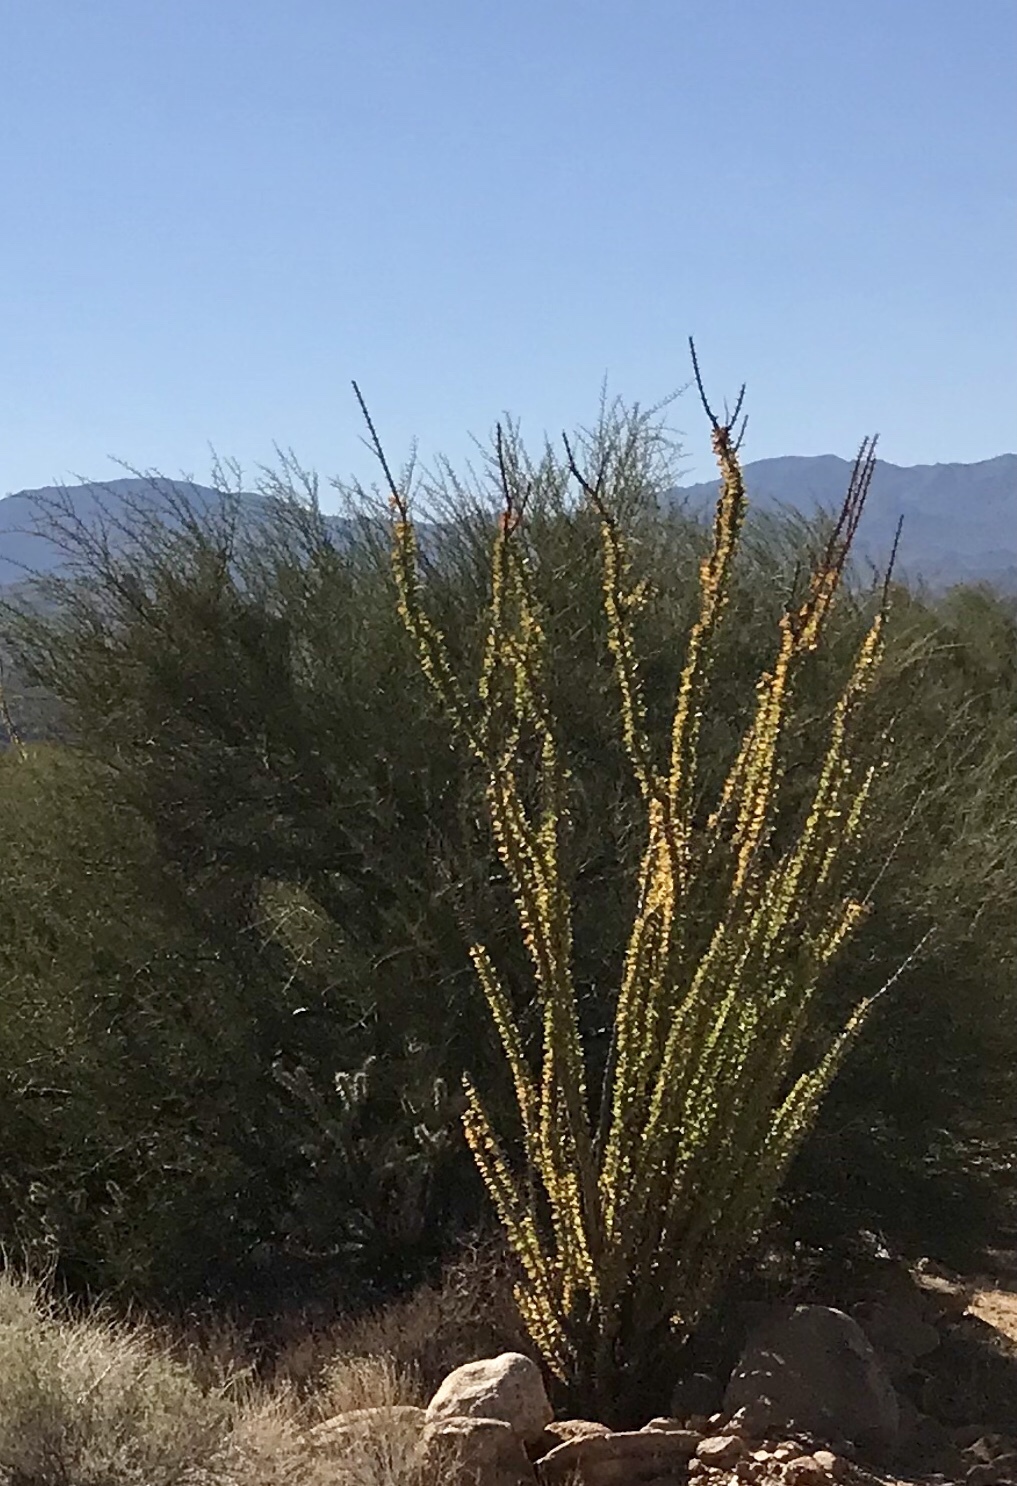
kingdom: Plantae
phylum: Tracheophyta
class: Magnoliopsida
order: Ericales
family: Fouquieriaceae
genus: Fouquieria
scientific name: Fouquieria splendens
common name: Vine-cactus
